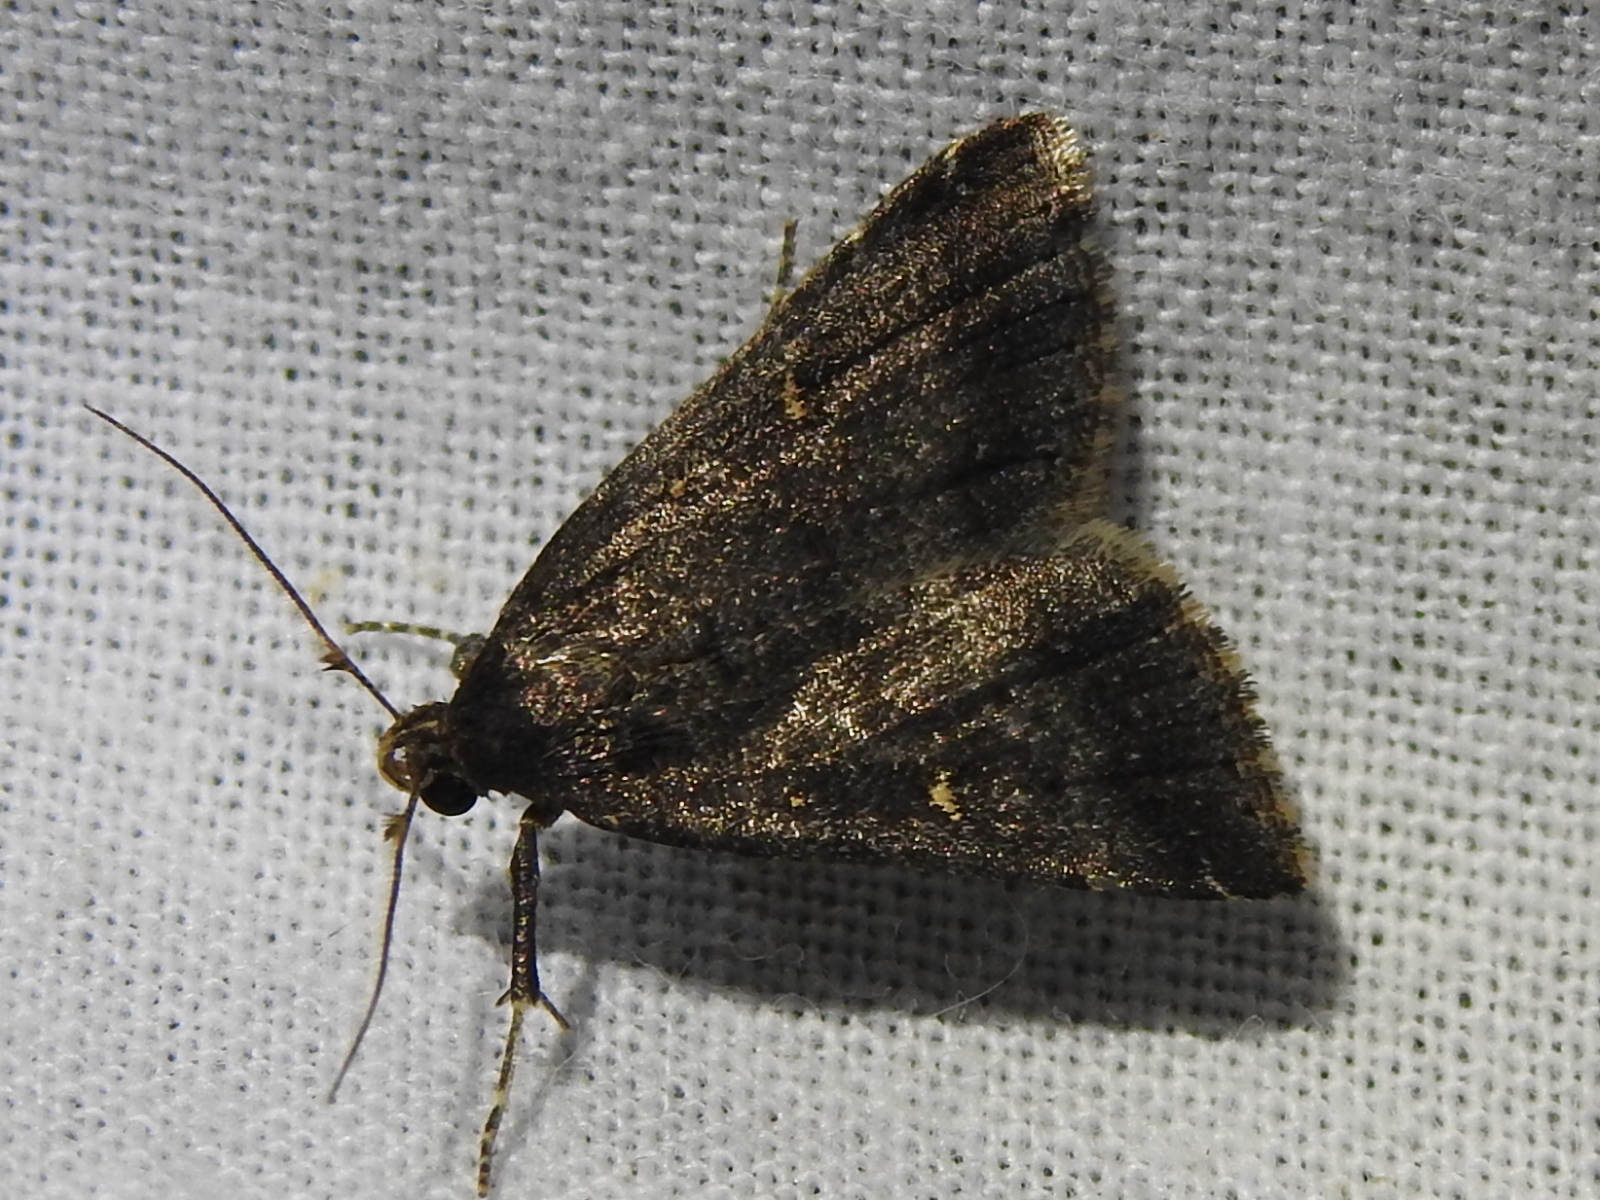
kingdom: Animalia
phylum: Arthropoda
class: Insecta
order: Lepidoptera
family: Erebidae
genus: Tetanolita
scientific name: Tetanolita mynesalis
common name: Smoky tetanolita moth
